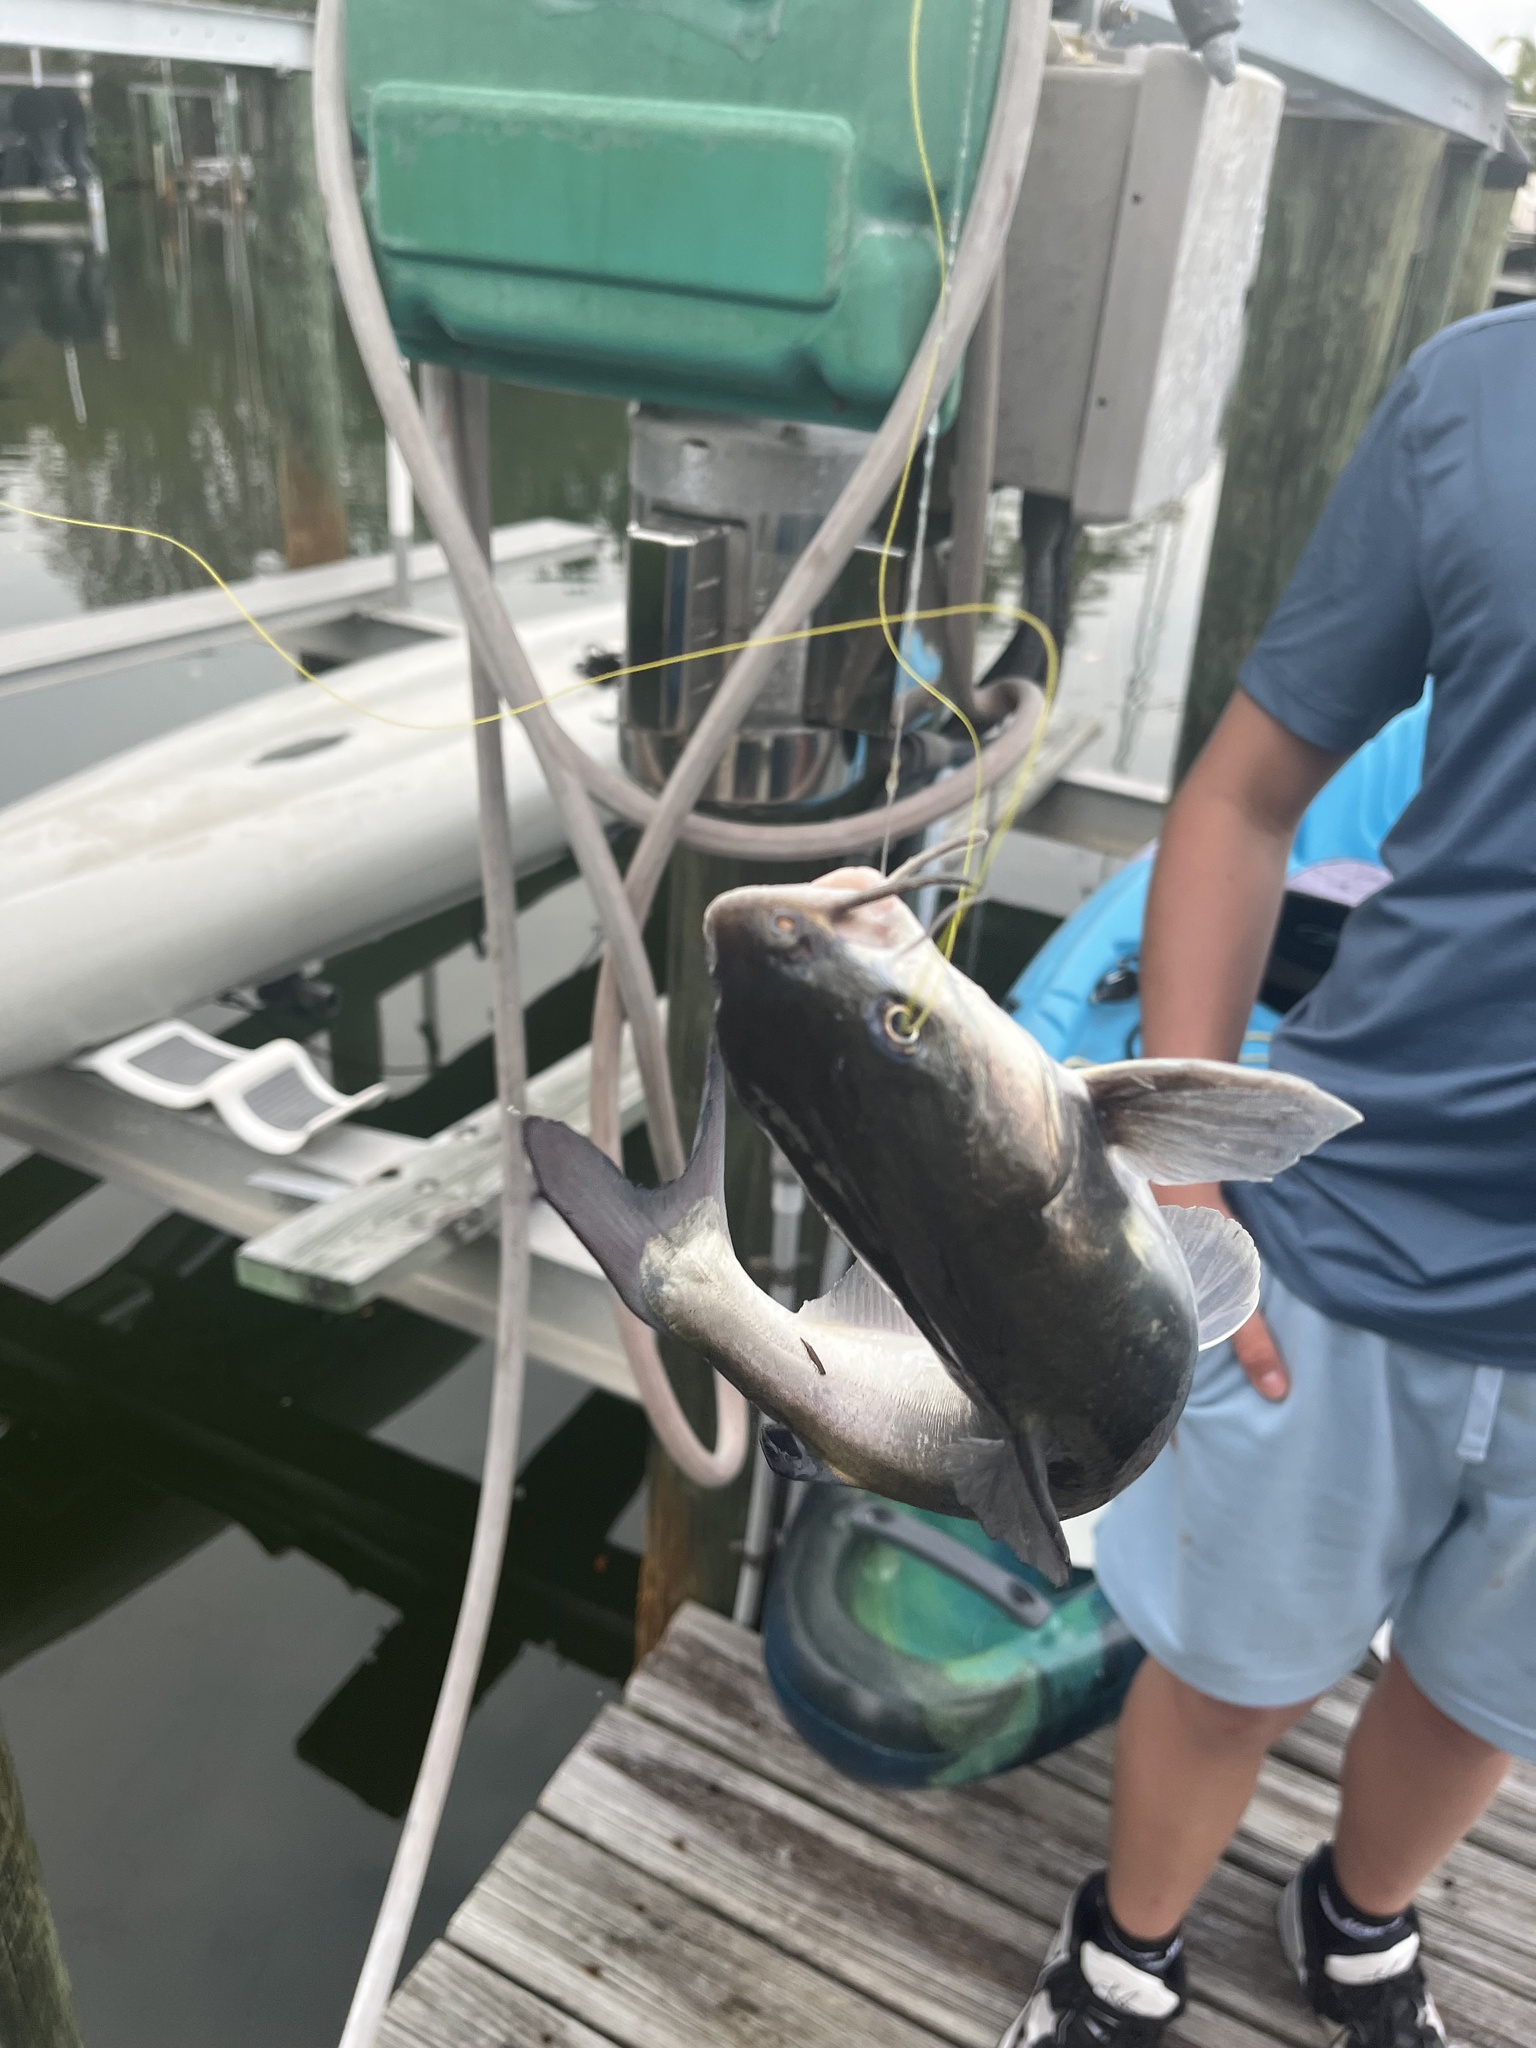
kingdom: Animalia
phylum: Chordata
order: Siluriformes
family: Ariidae
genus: Ariopsis
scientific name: Ariopsis felis
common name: Hardhead catfish
